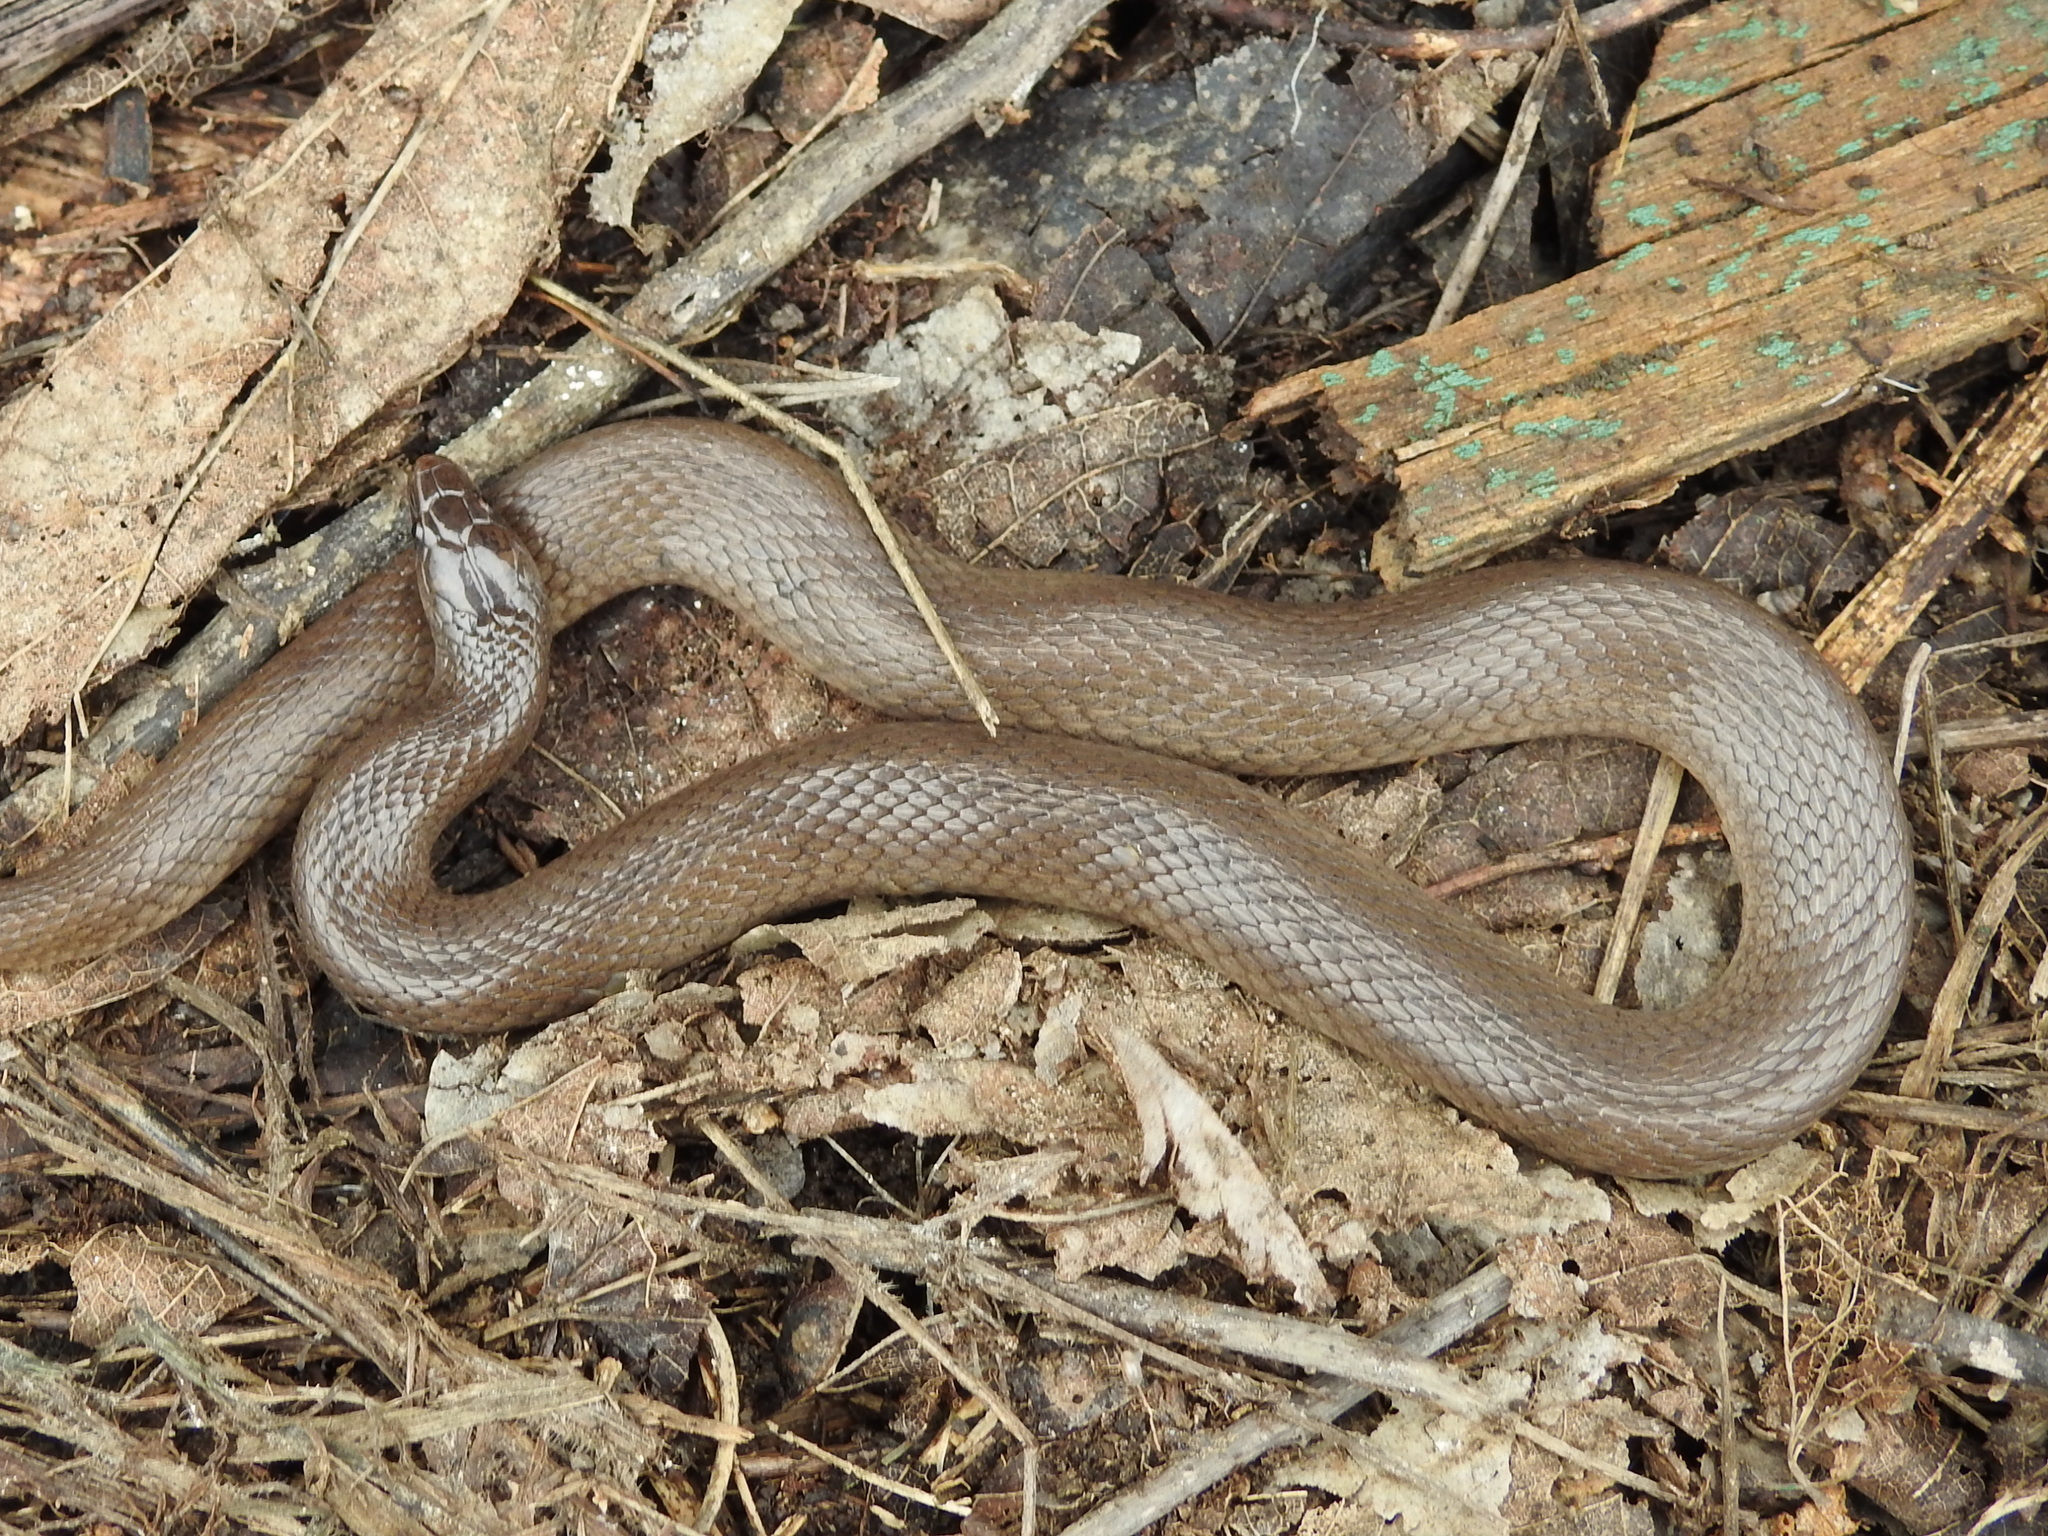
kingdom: Animalia
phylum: Chordata
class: Squamata
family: Colubridae
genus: Haldea
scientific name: Haldea striatula
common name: Rough earth snake
